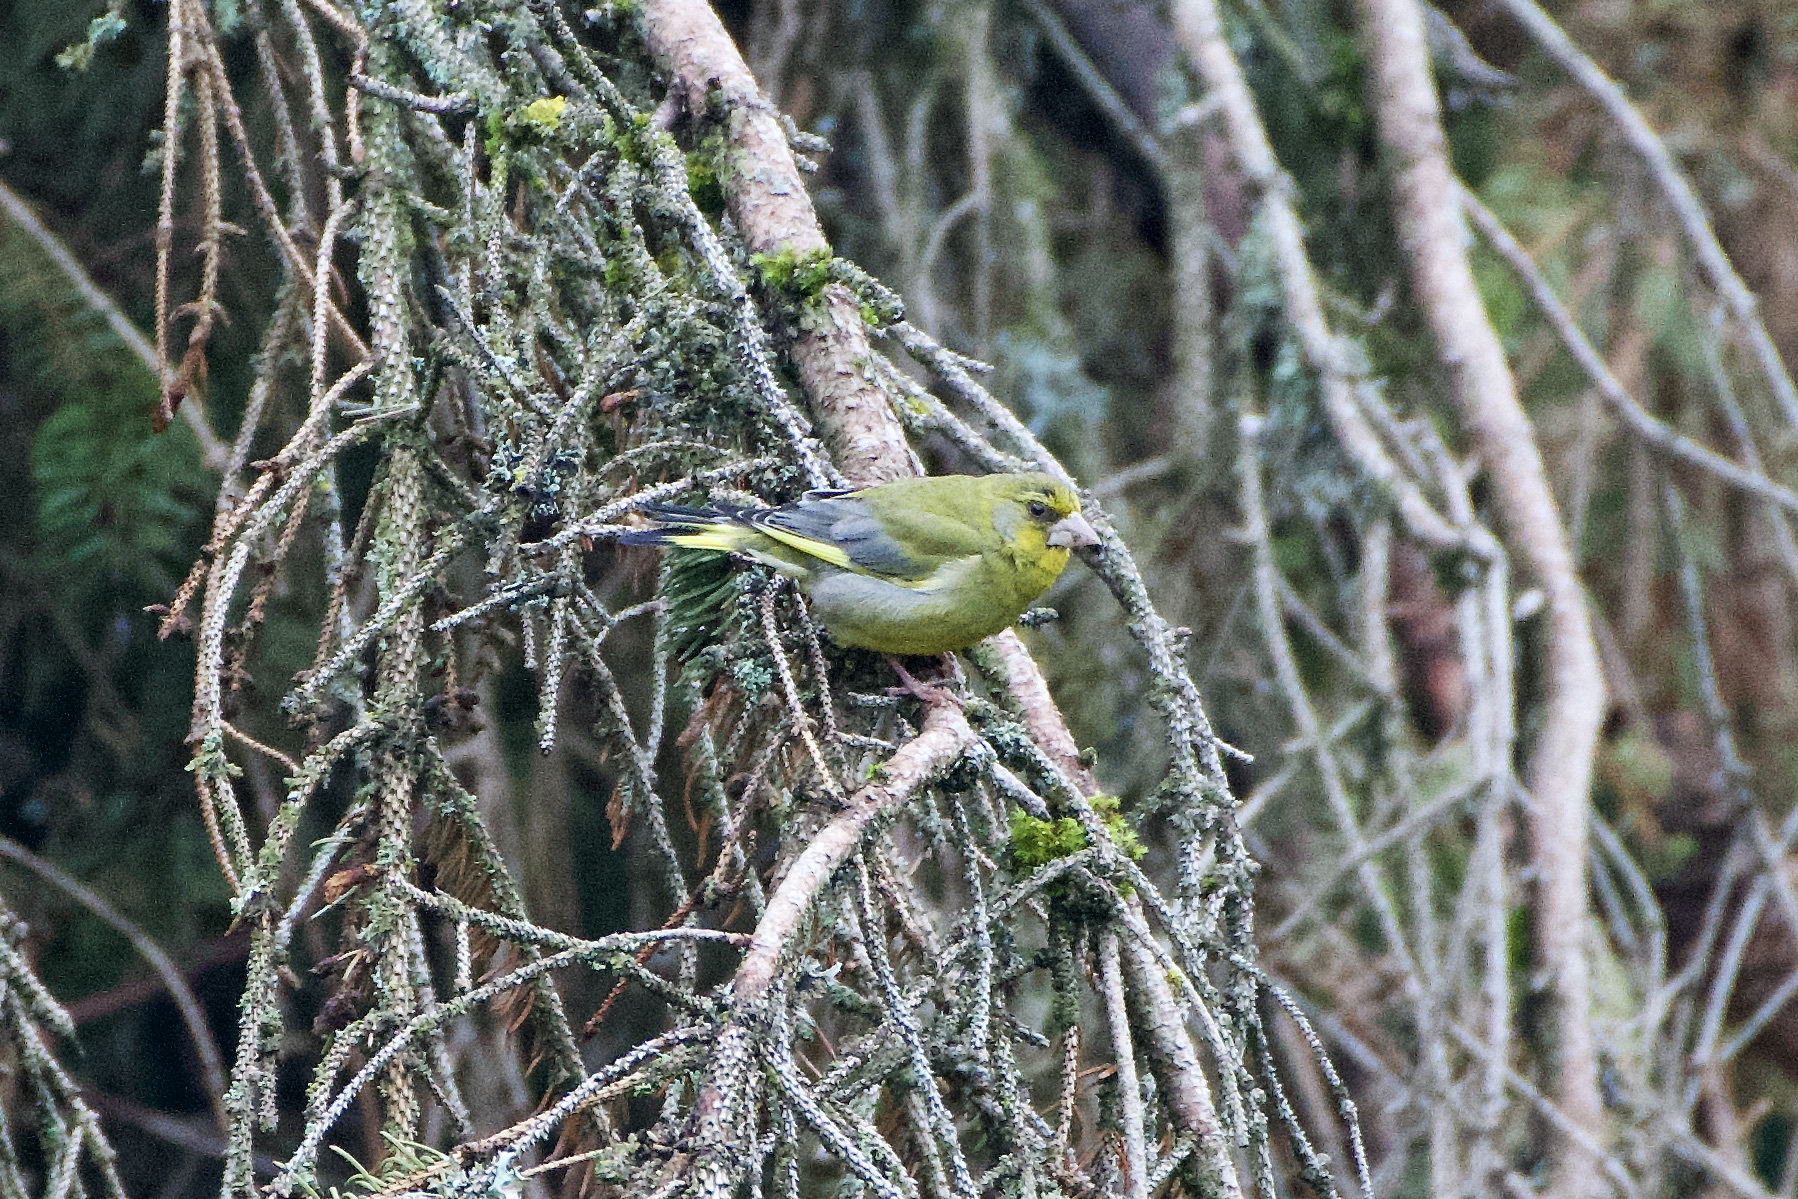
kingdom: Plantae
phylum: Tracheophyta
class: Liliopsida
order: Poales
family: Poaceae
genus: Chloris
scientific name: Chloris chloris
